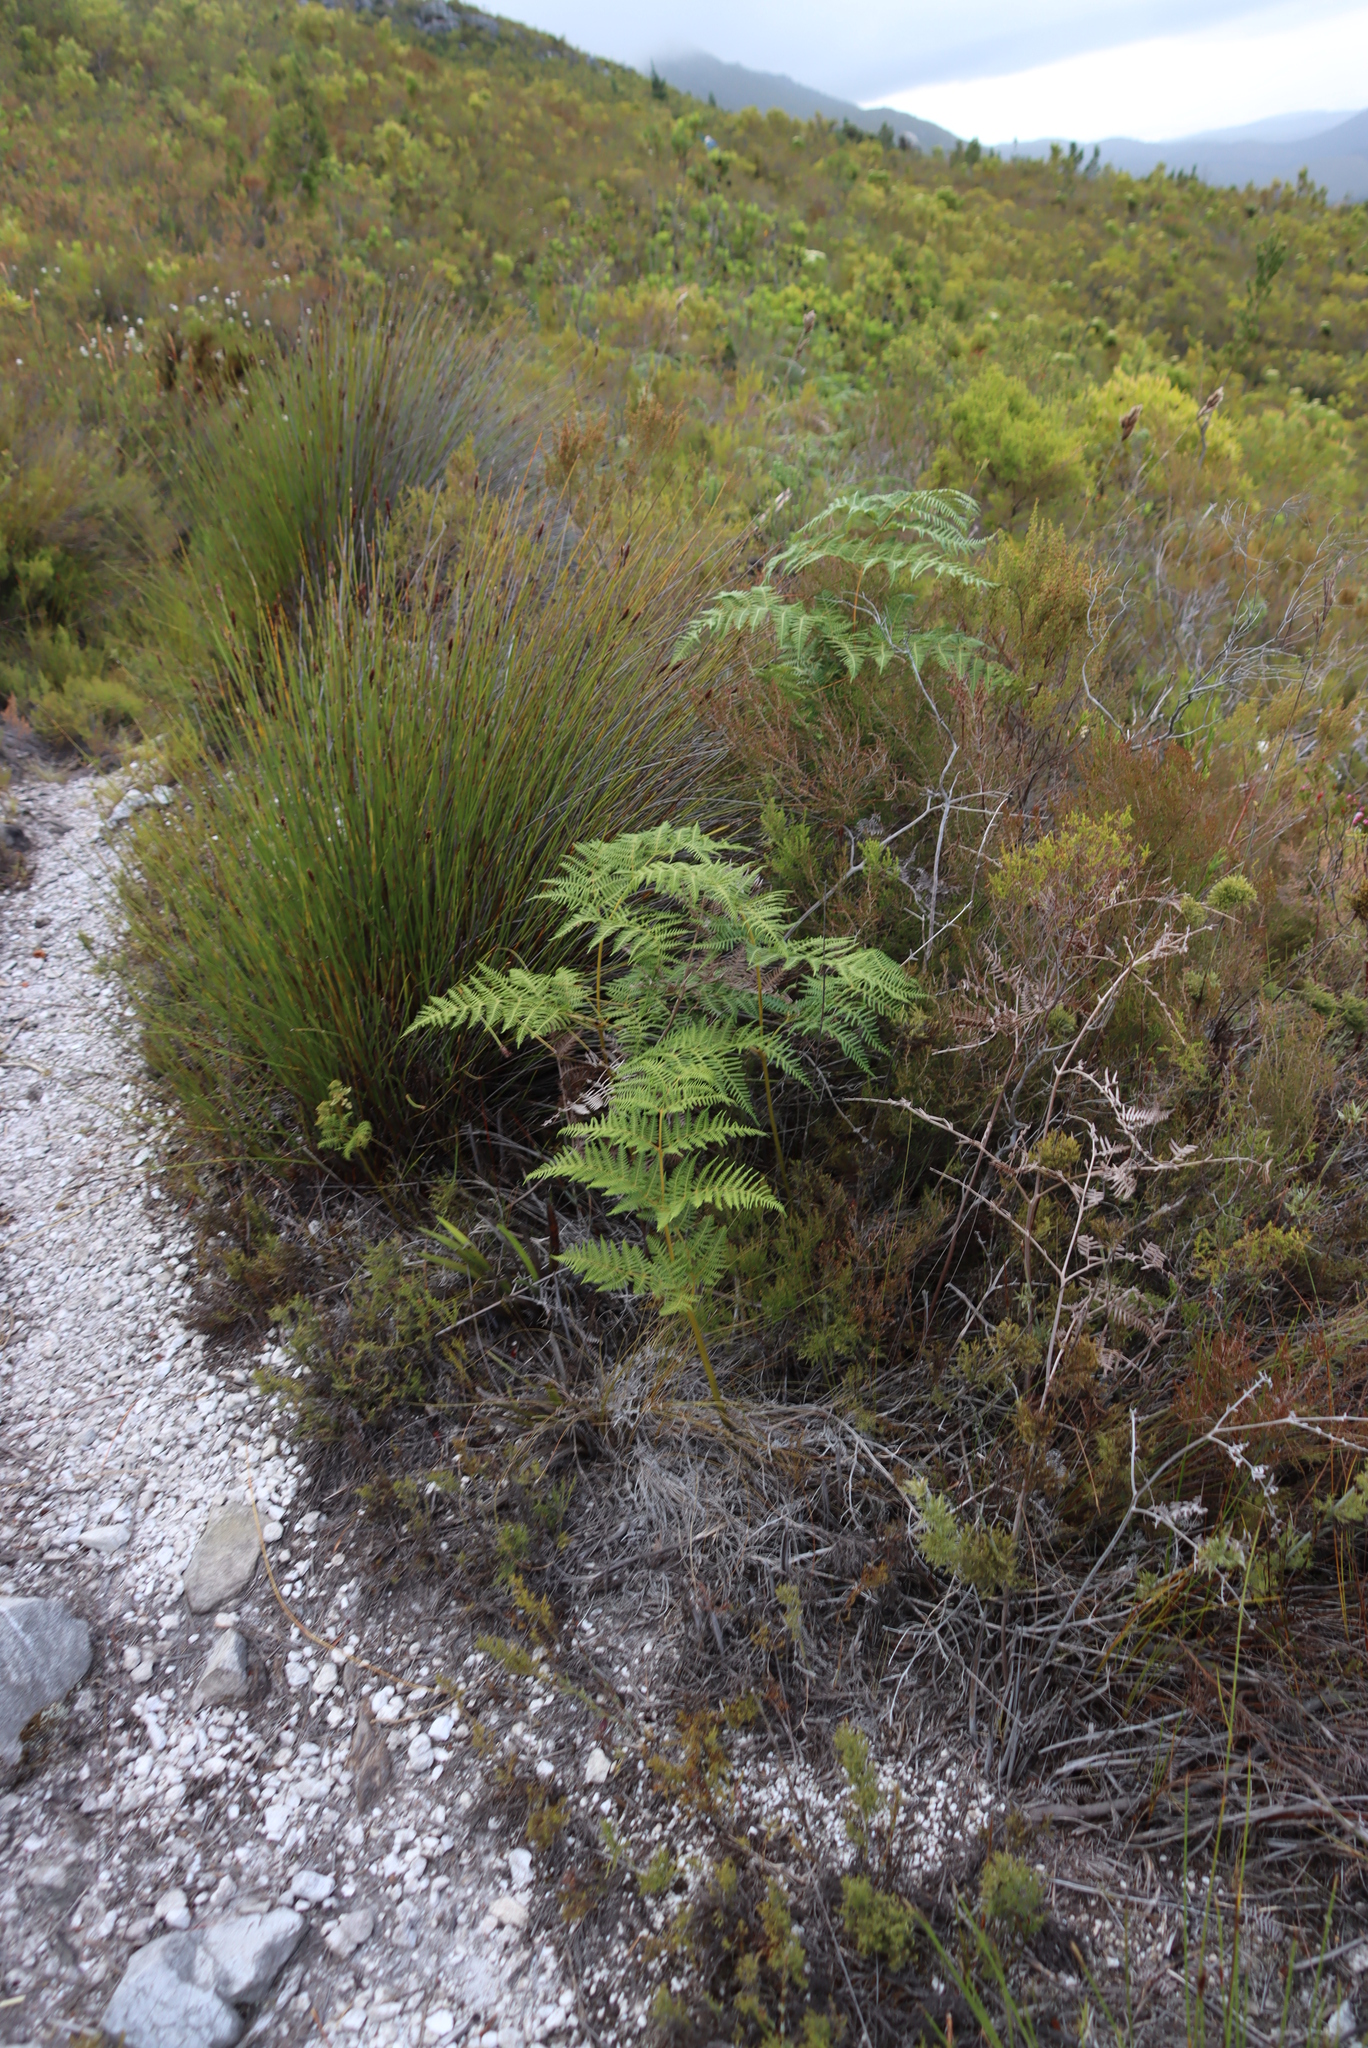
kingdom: Plantae
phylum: Tracheophyta
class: Polypodiopsida
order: Polypodiales
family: Dennstaedtiaceae
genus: Pteridium
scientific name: Pteridium aquilinum
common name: Bracken
